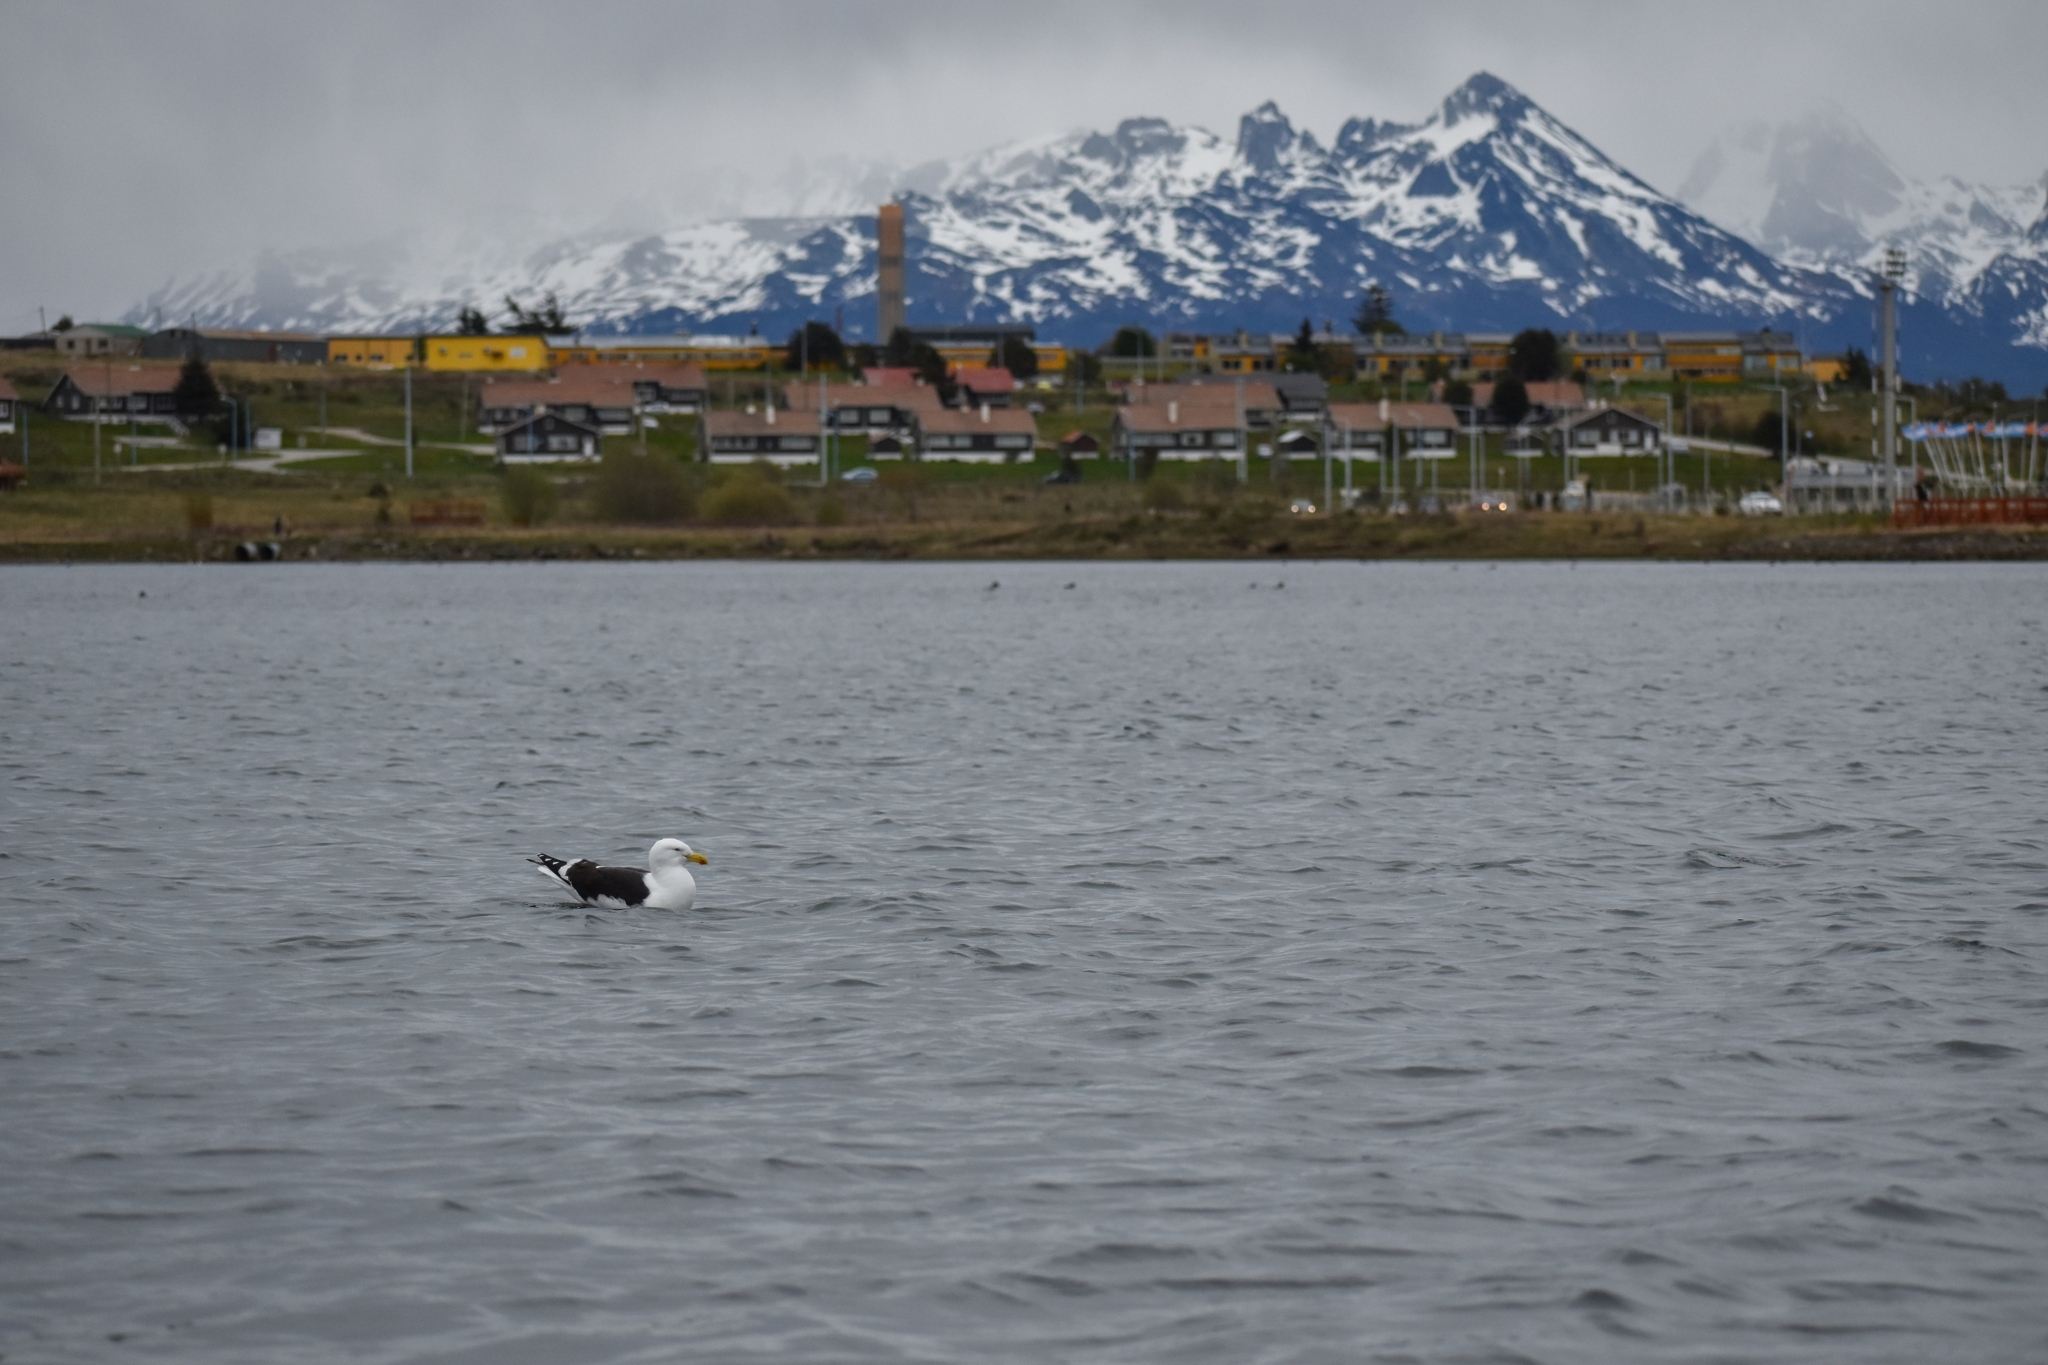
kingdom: Animalia
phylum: Chordata
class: Aves
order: Charadriiformes
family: Laridae
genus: Larus
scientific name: Larus dominicanus
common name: Kelp gull
